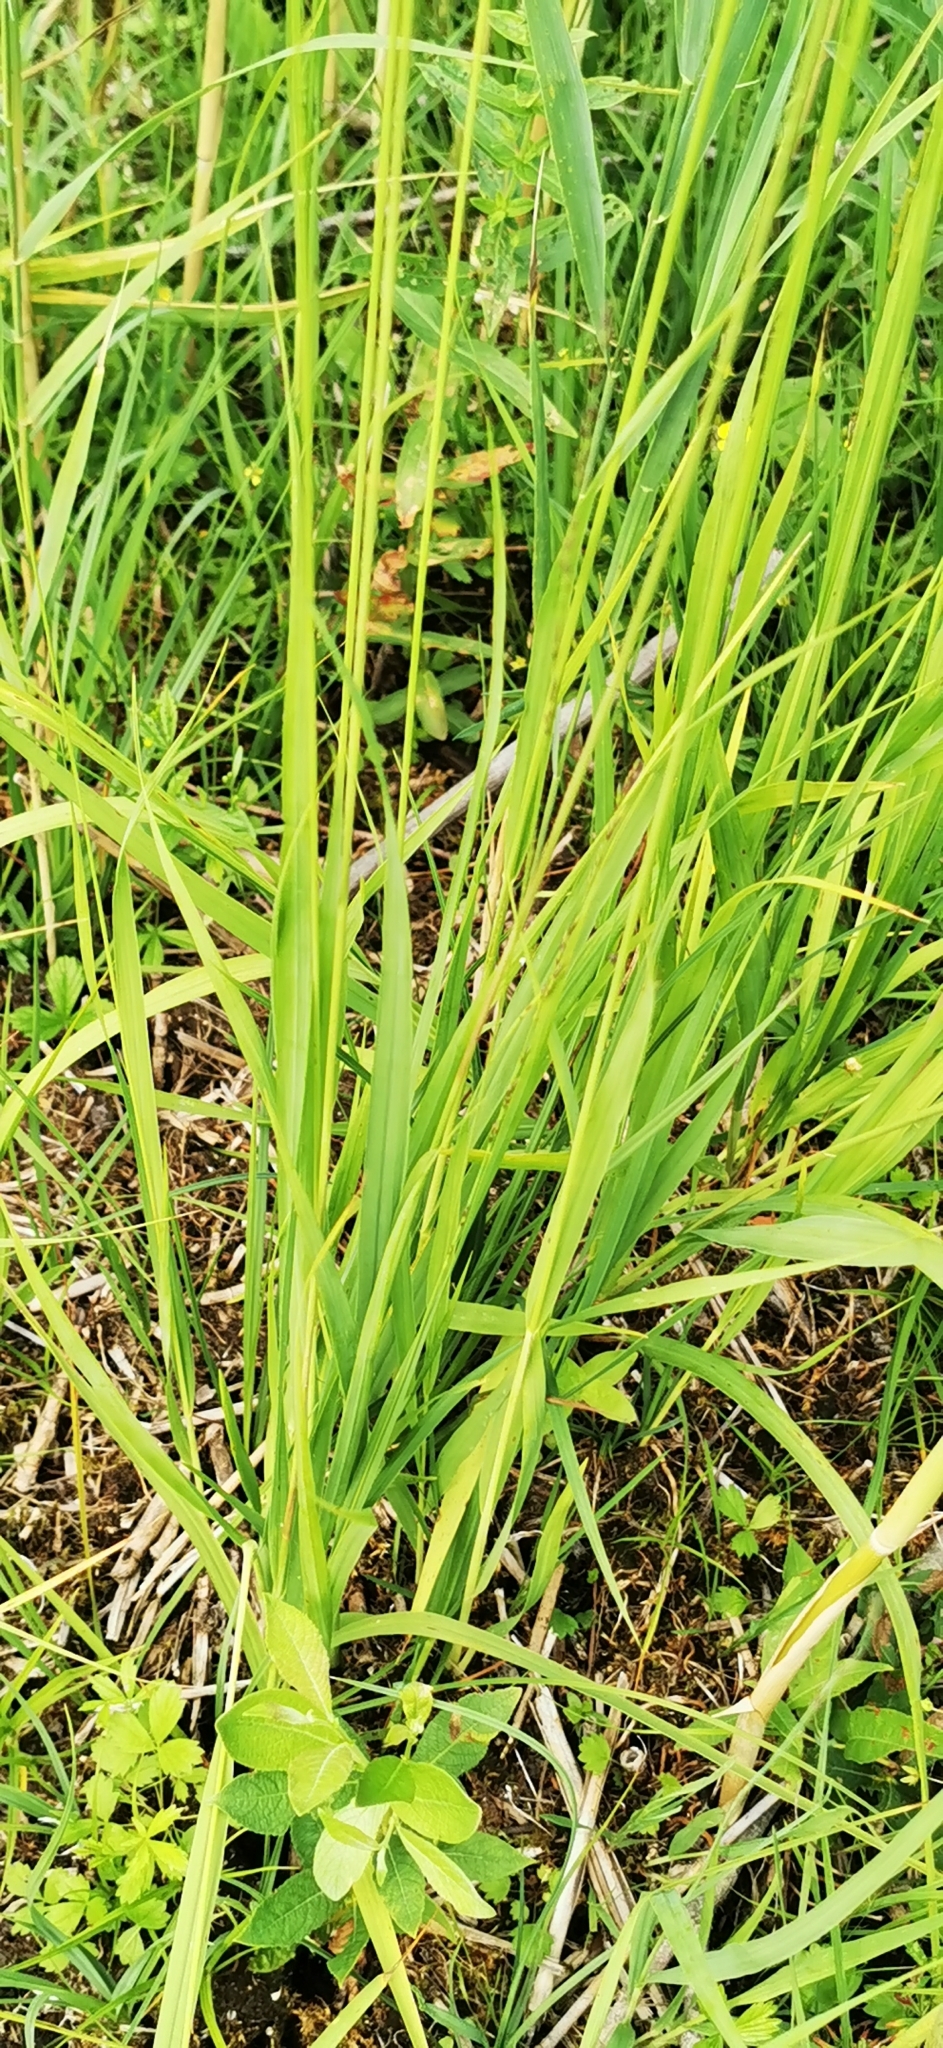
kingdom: Plantae
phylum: Tracheophyta
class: Liliopsida
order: Poales
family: Poaceae
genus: Molinia
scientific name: Molinia caerulea
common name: Purple moor-grass
